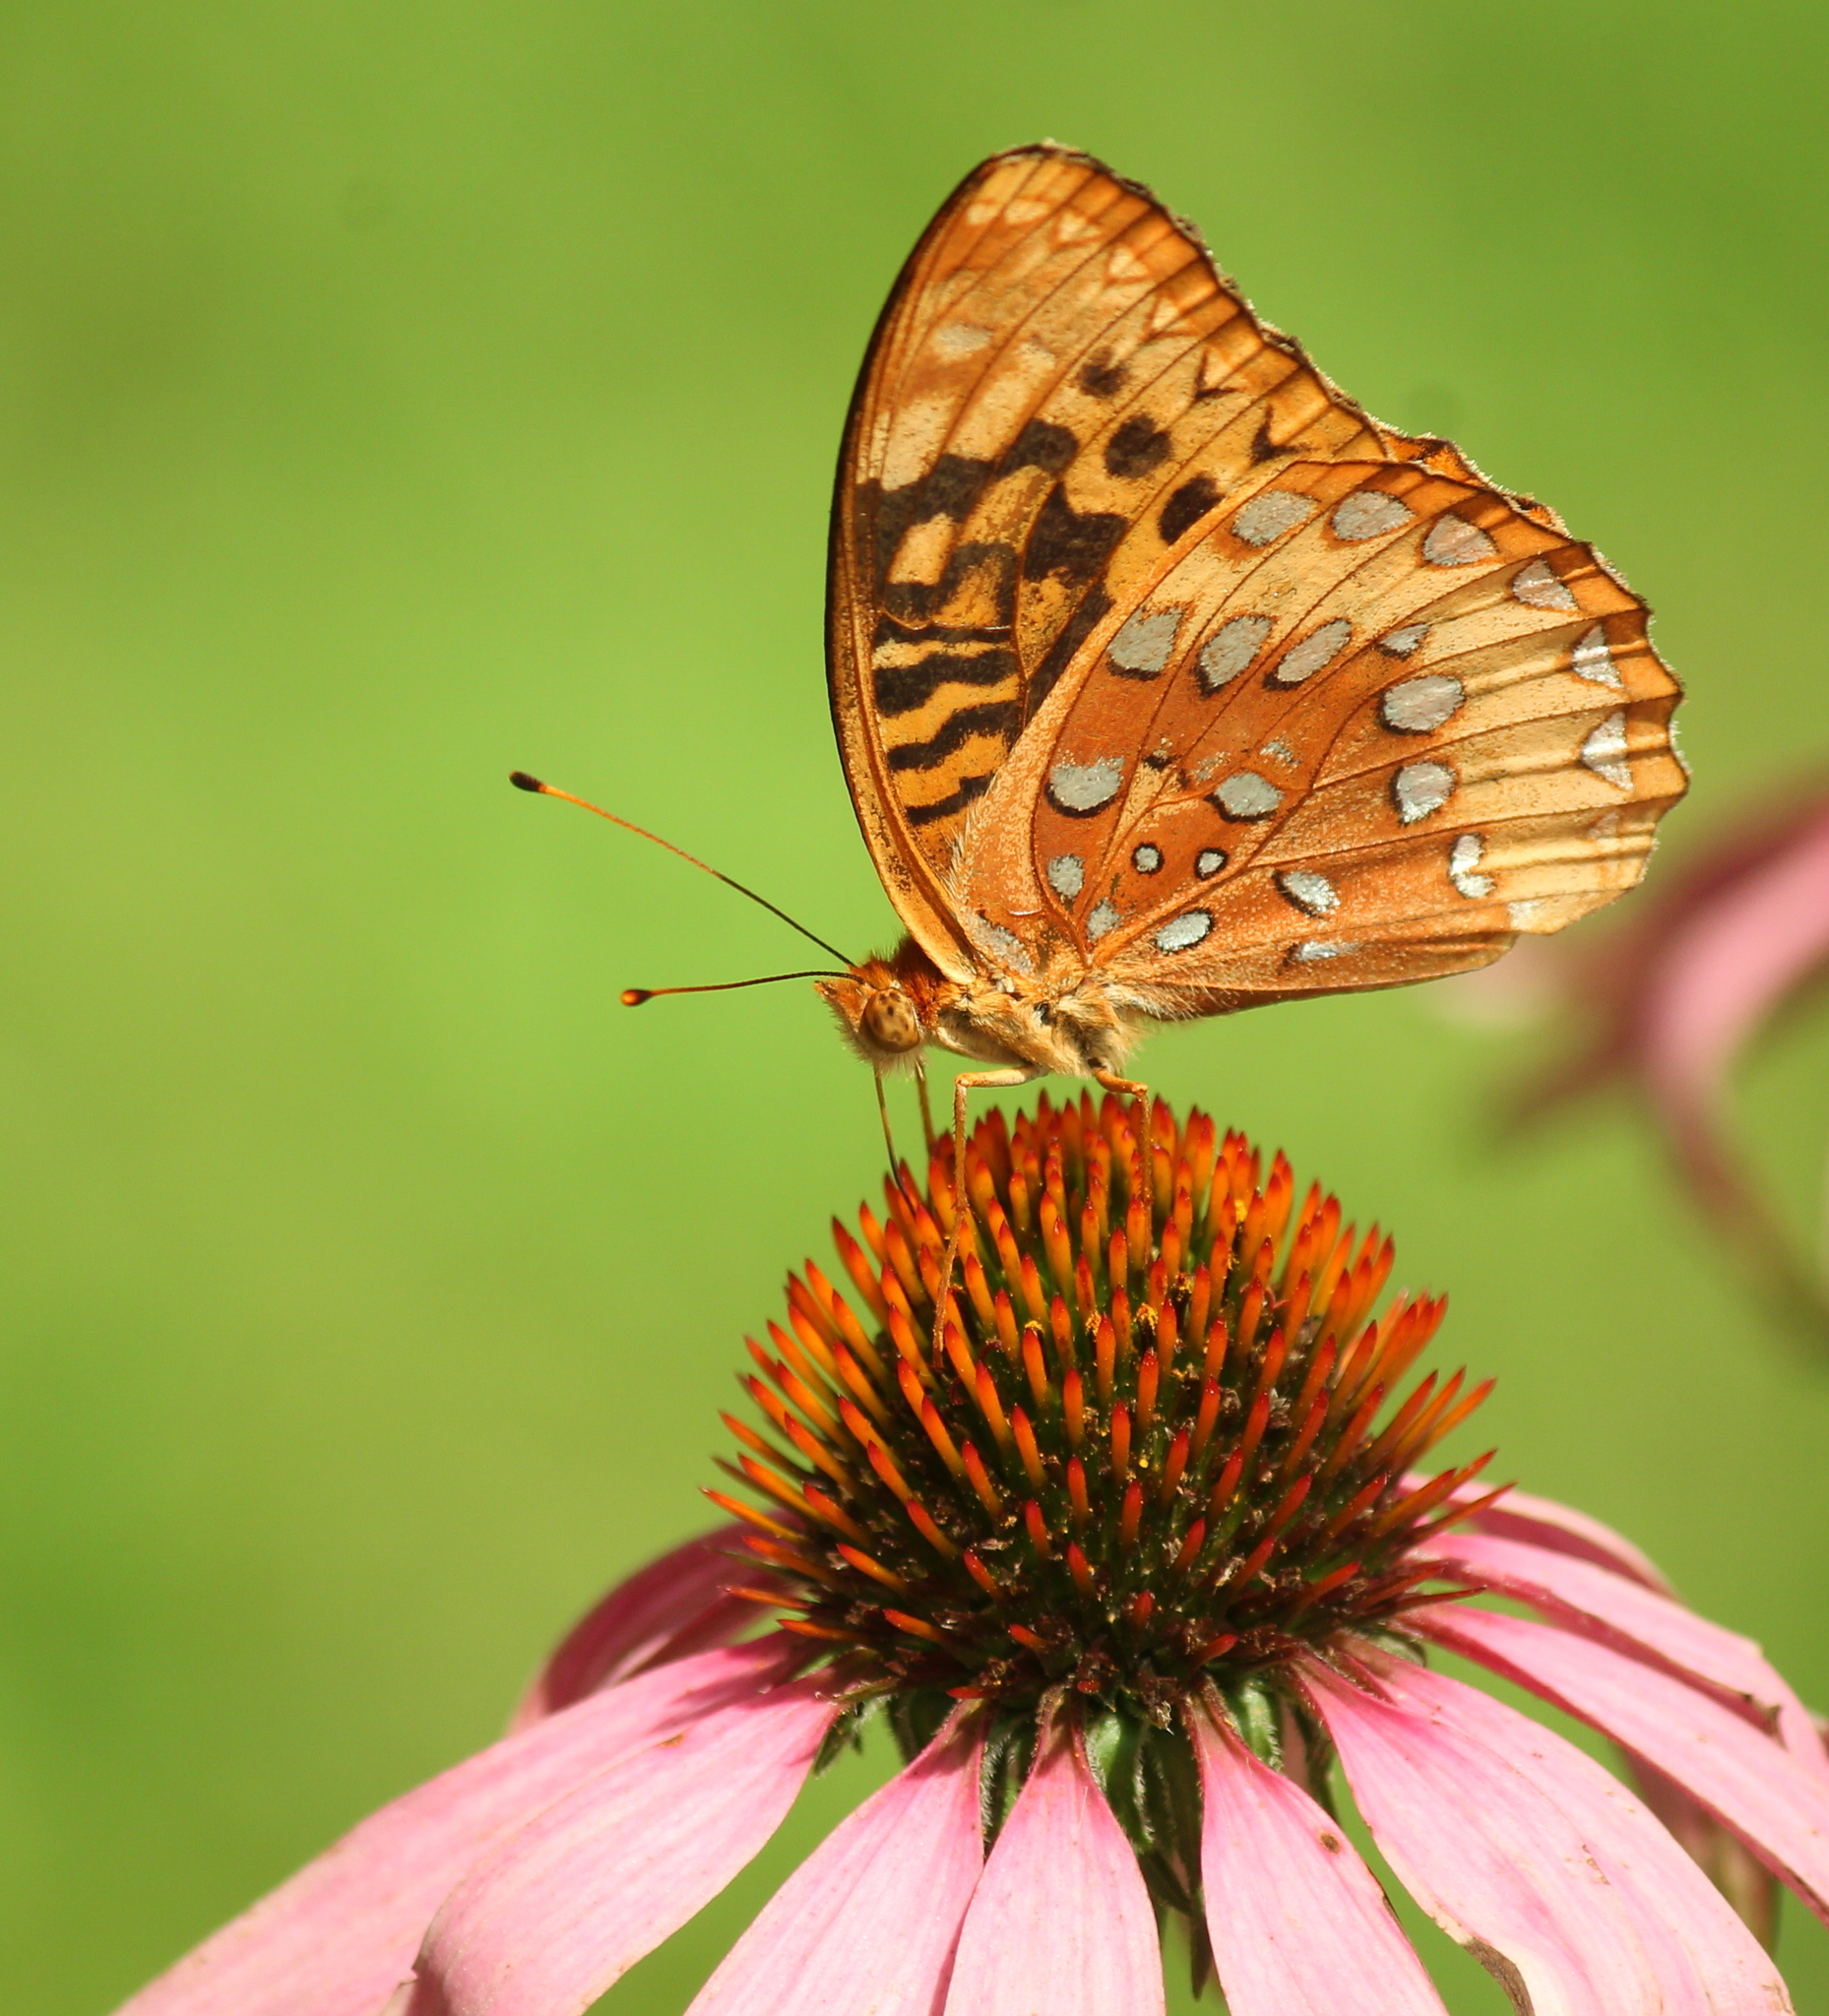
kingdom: Animalia
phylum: Arthropoda
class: Insecta
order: Lepidoptera
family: Nymphalidae
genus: Speyeria
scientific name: Speyeria cybele
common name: Great spangled fritillary
